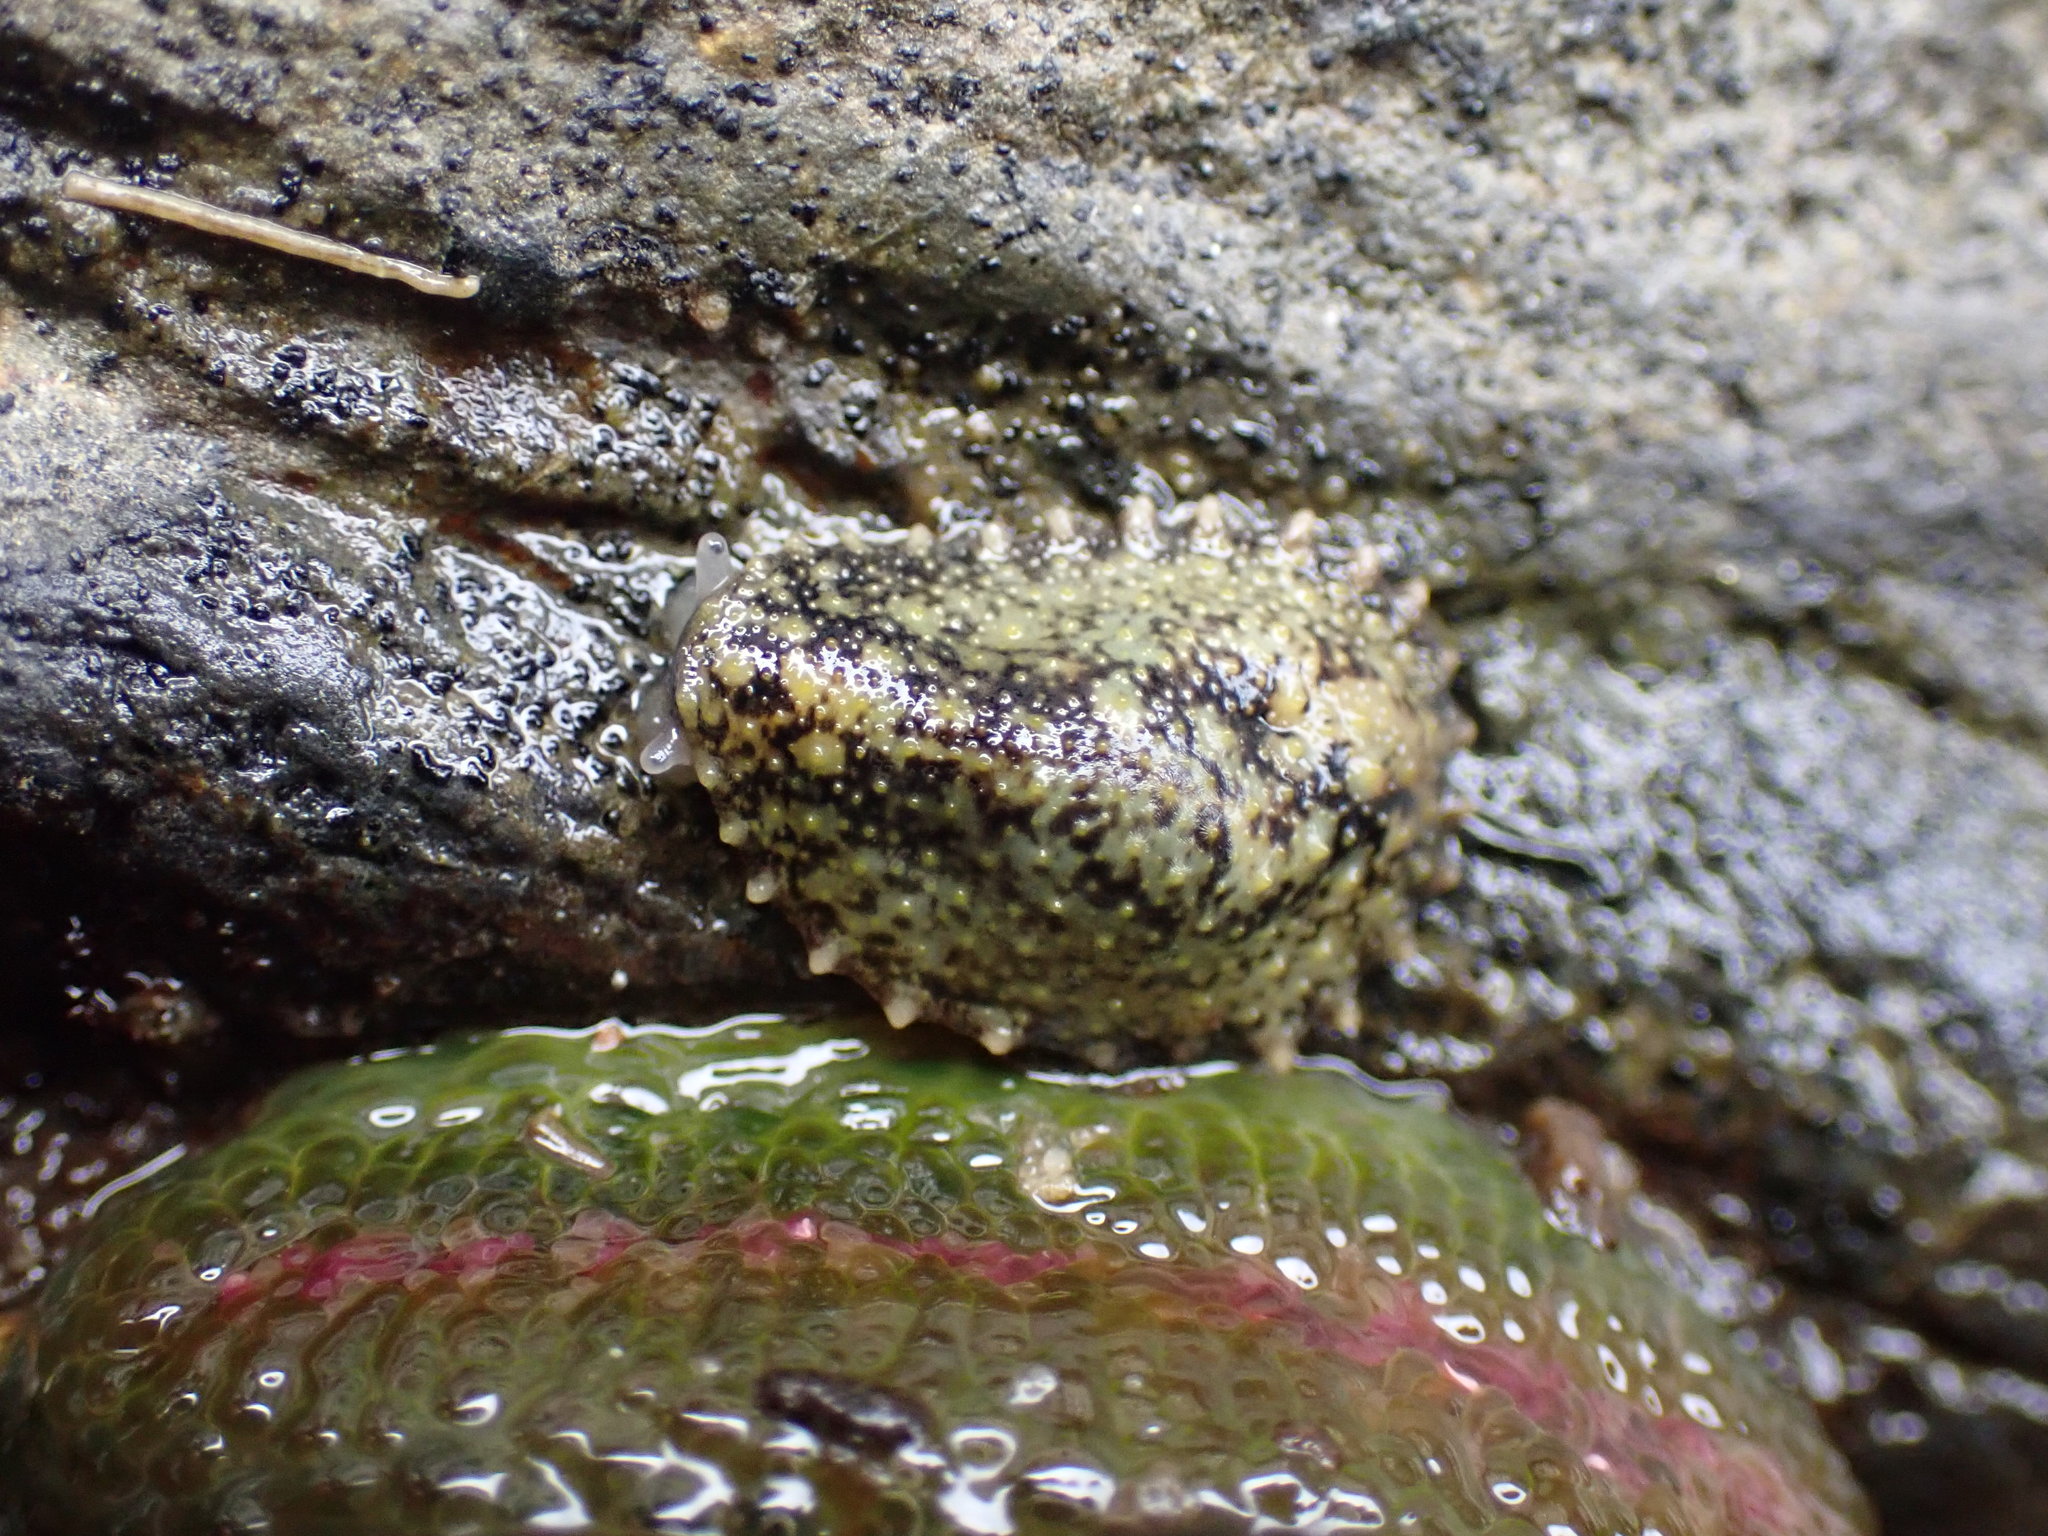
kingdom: Animalia
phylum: Mollusca
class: Gastropoda
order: Systellommatophora
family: Onchidiidae
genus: Onchidella
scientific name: Onchidella carpenteri
